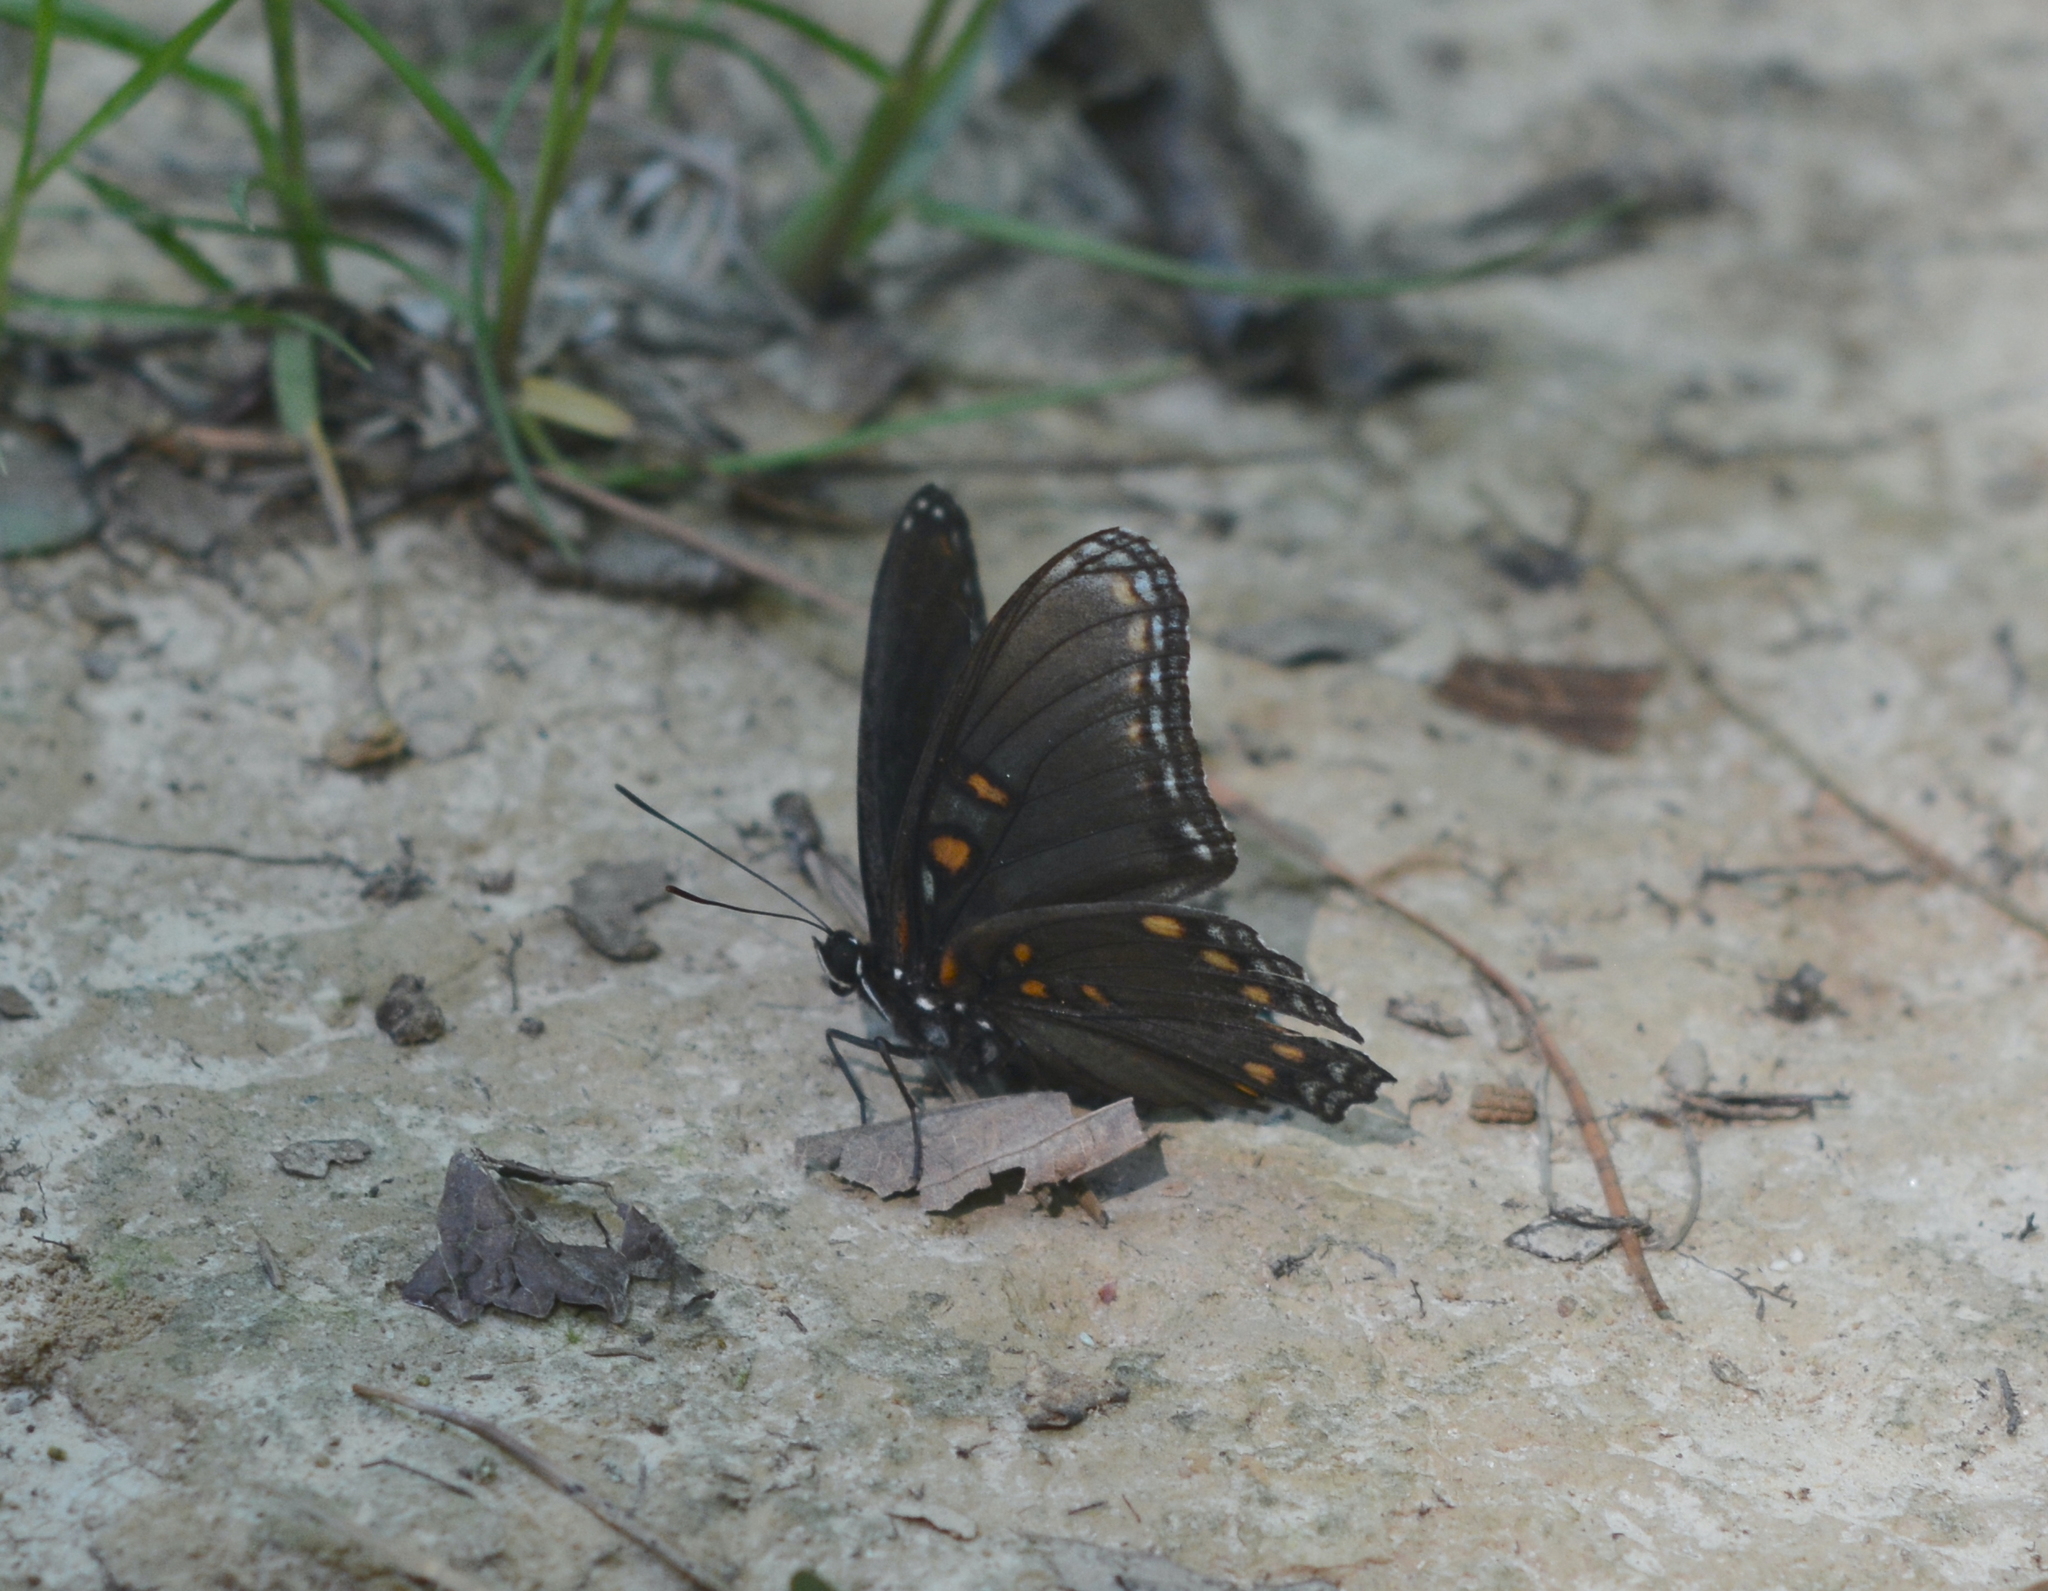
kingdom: Animalia
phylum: Arthropoda
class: Insecta
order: Lepidoptera
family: Nymphalidae
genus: Limenitis
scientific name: Limenitis astyanax
